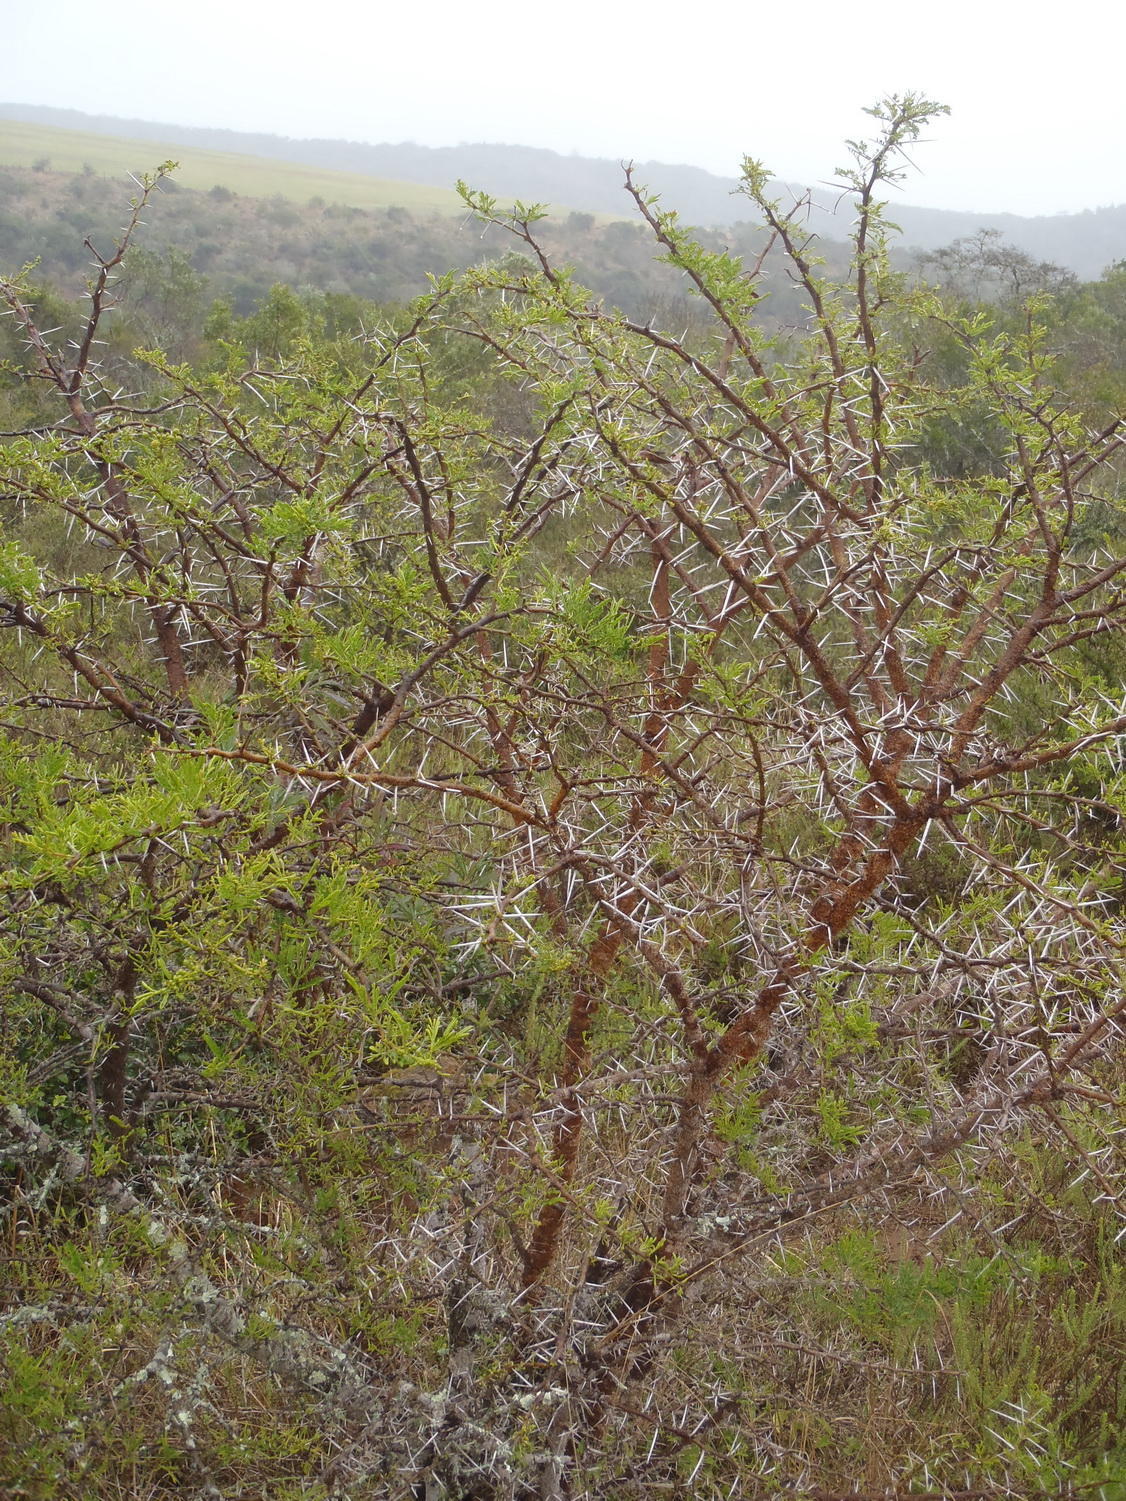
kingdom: Plantae
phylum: Tracheophyta
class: Magnoliopsida
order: Fabales
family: Fabaceae
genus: Vachellia
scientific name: Vachellia karroo
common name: Sweet thorn
